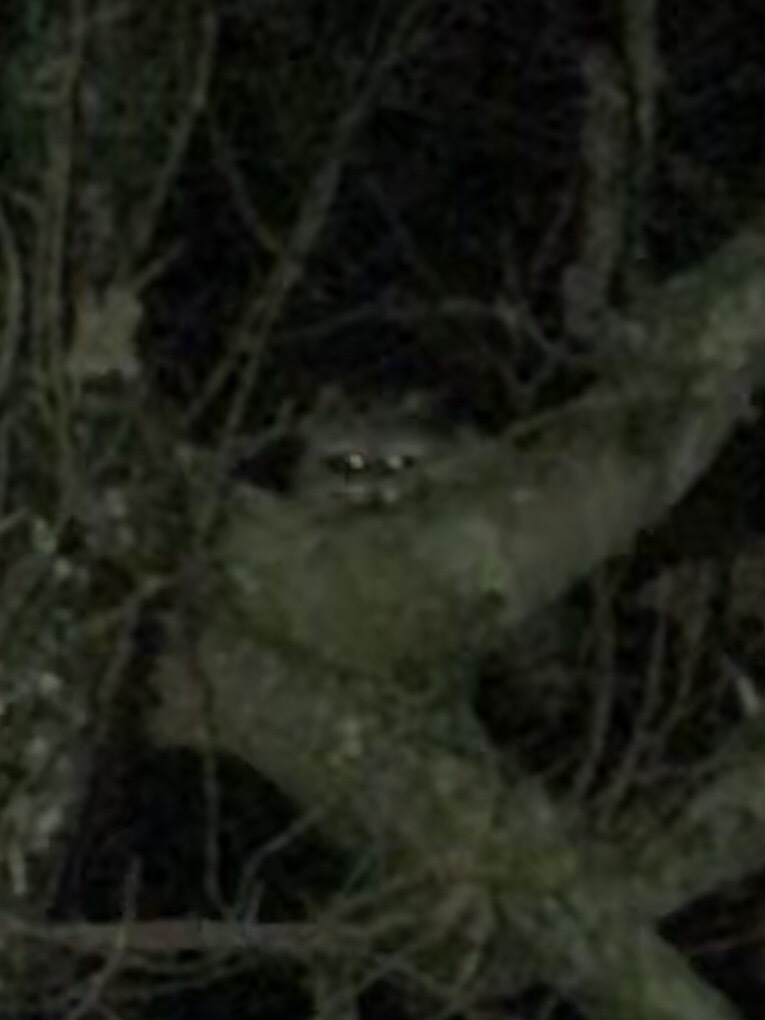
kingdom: Animalia
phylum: Chordata
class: Mammalia
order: Carnivora
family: Procyonidae
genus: Procyon
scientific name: Procyon lotor
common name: Raccoon
